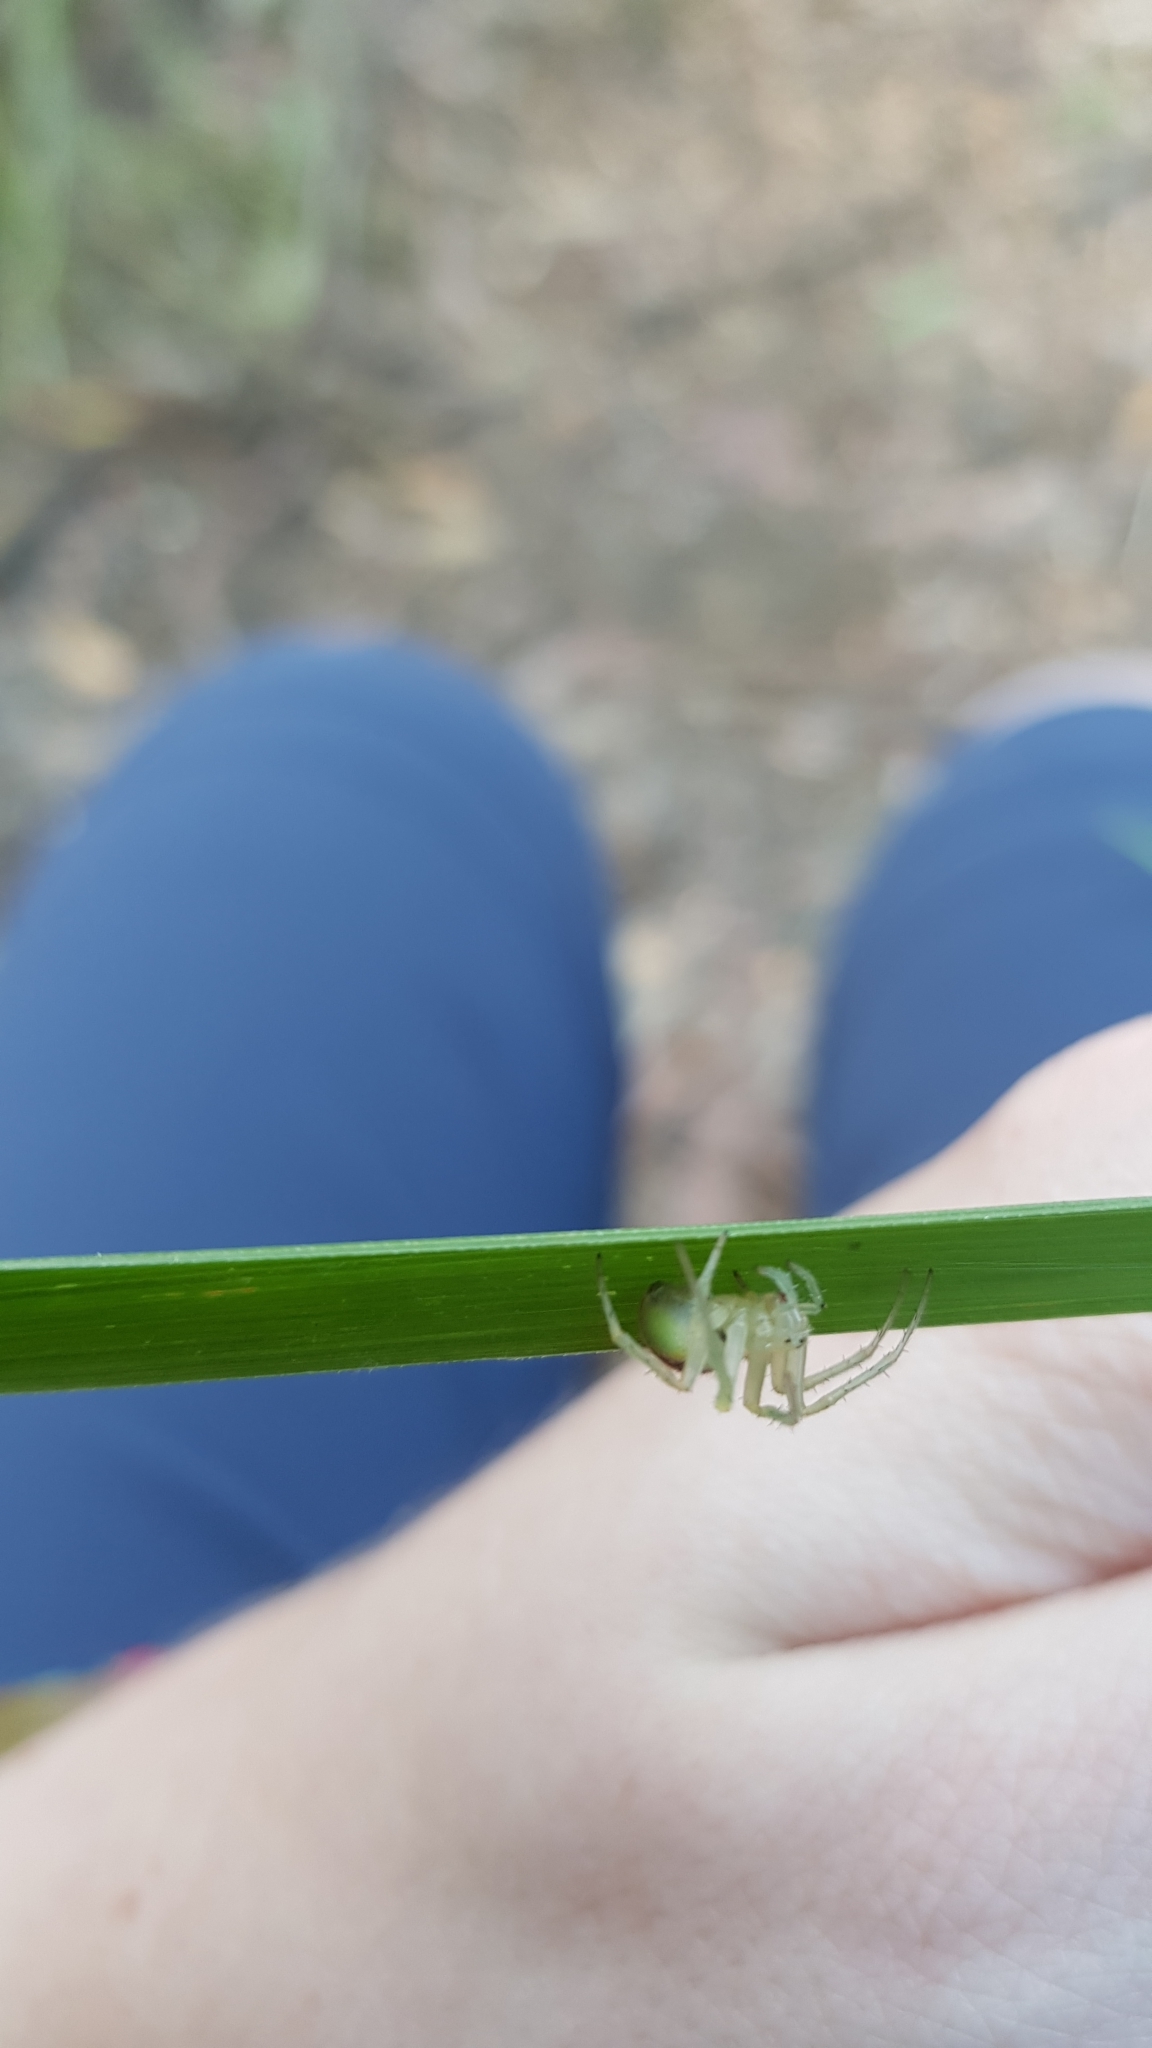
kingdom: Animalia
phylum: Arthropoda
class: Arachnida
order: Araneae
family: Araneidae
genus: Araneus
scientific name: Araneus circulissparsus
